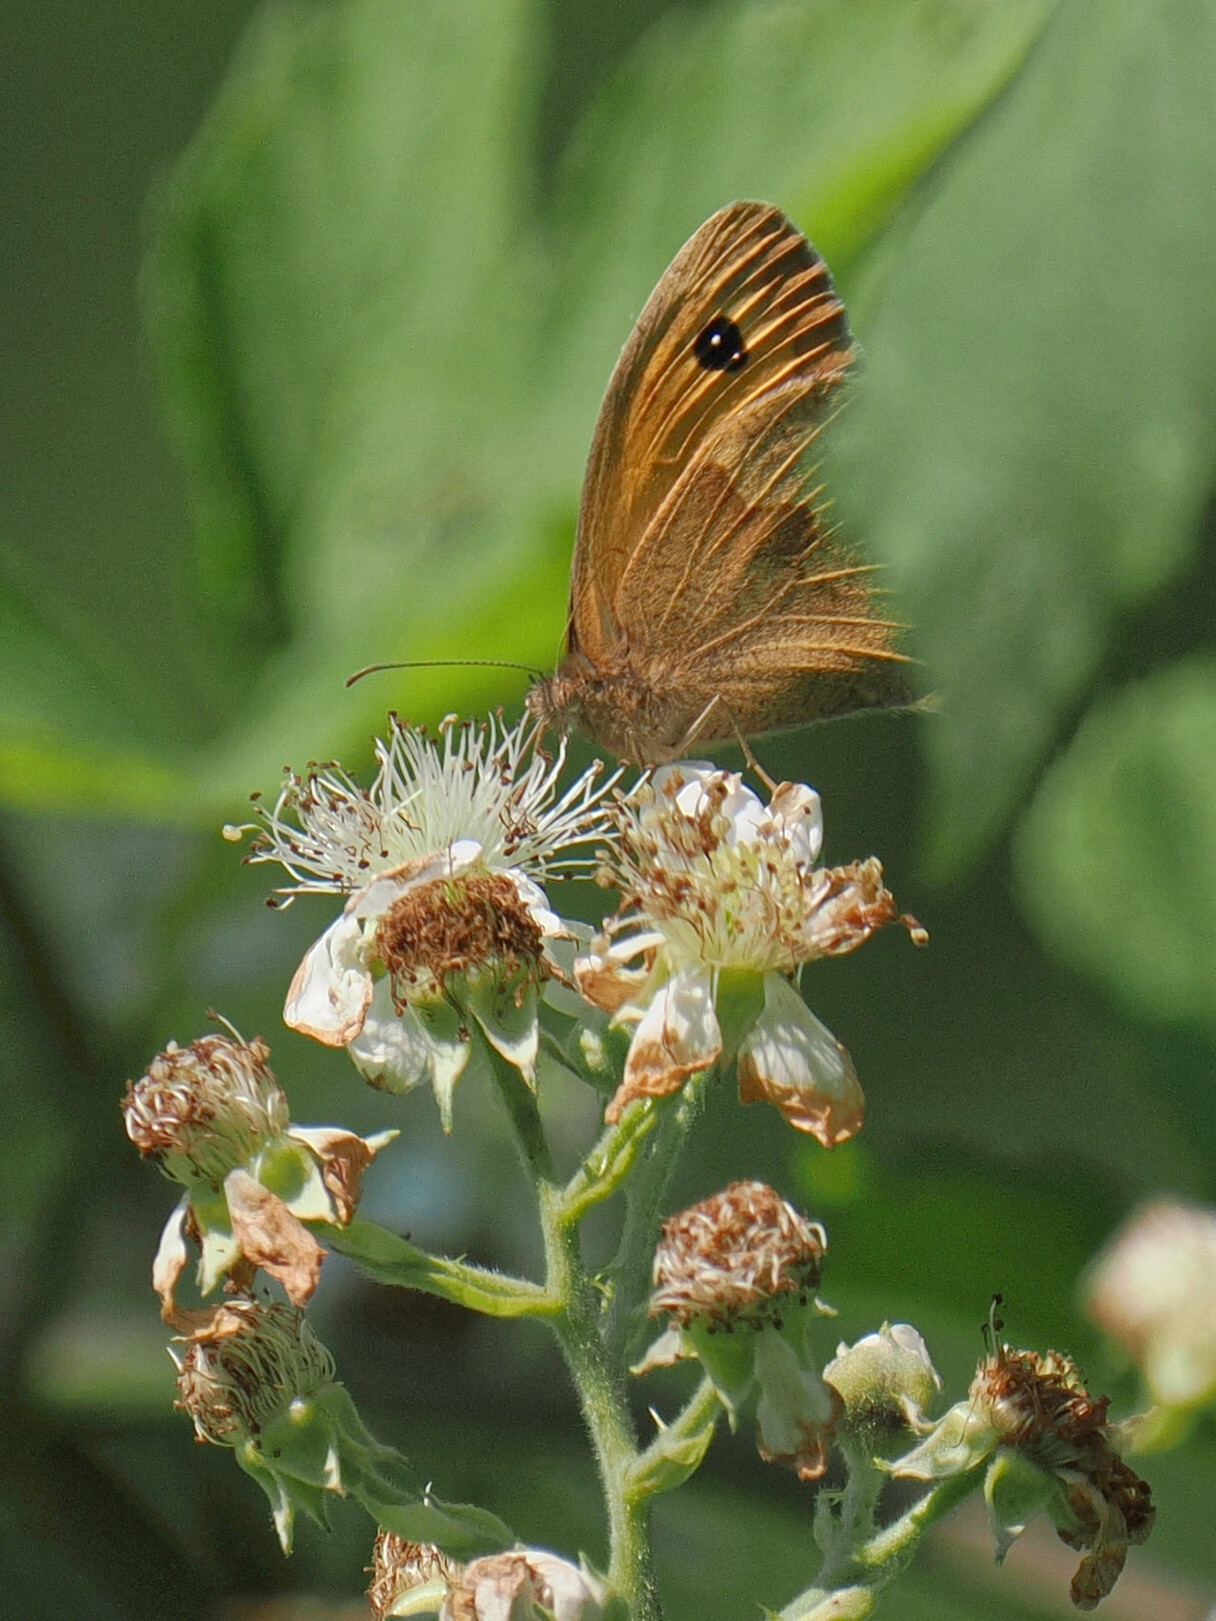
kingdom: Animalia
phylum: Arthropoda
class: Insecta
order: Lepidoptera
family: Nymphalidae
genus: Maniola
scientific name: Maniola jurtina
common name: Meadow brown
